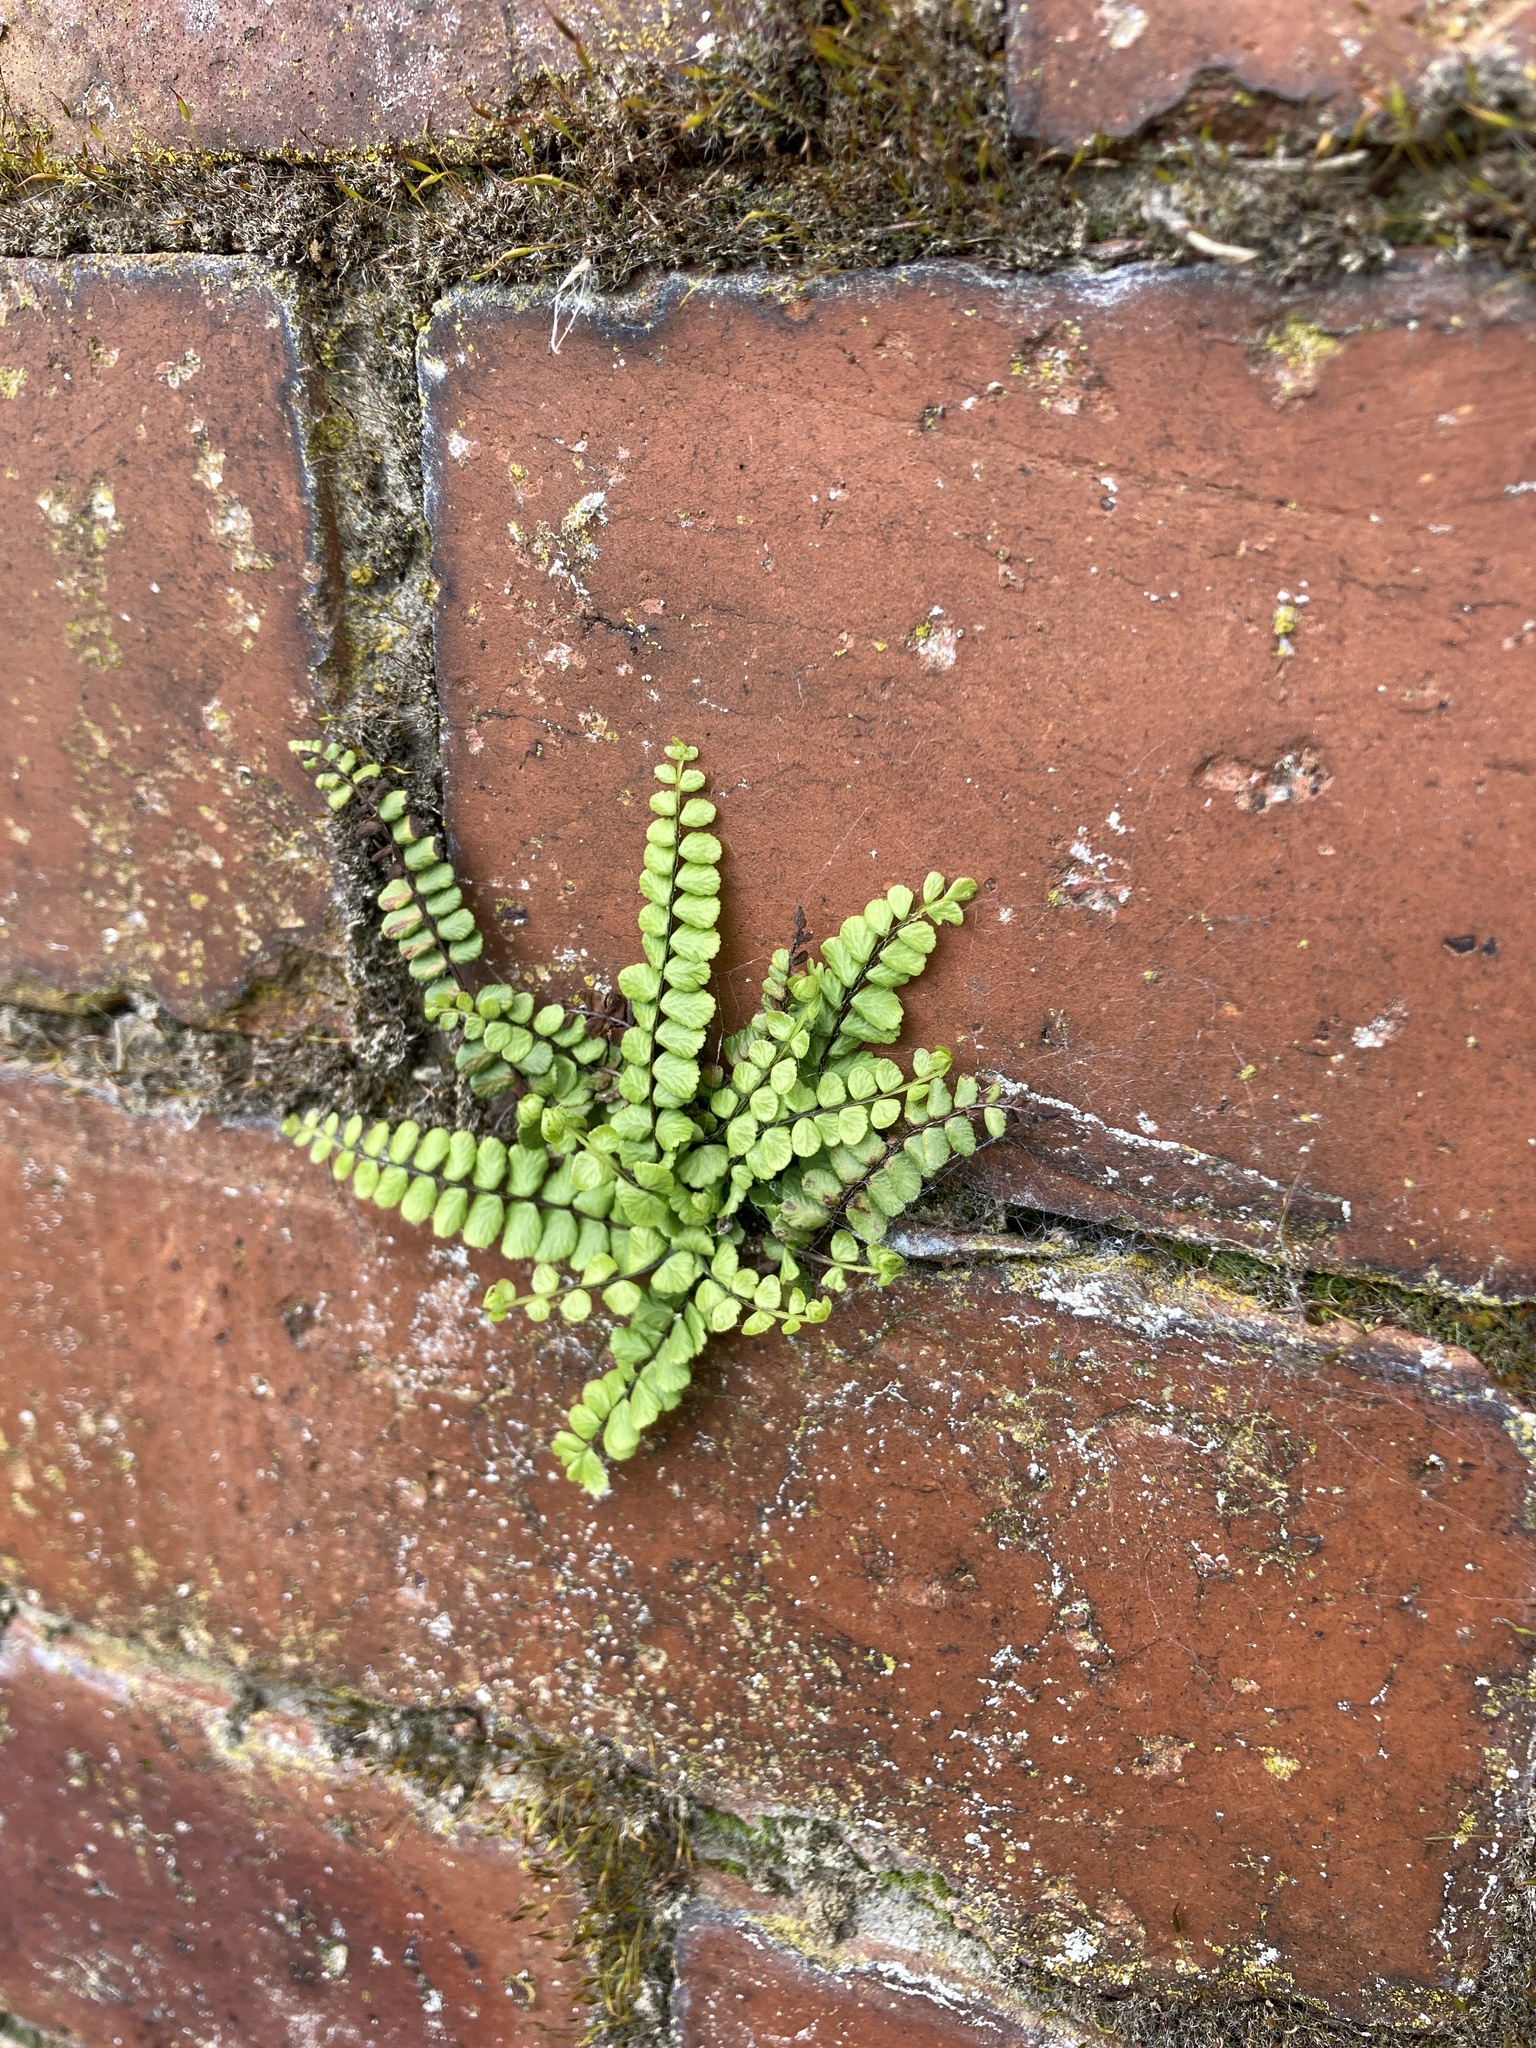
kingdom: Plantae
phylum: Tracheophyta
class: Polypodiopsida
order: Polypodiales
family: Aspleniaceae
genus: Asplenium
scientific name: Asplenium trichomanes
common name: Maidenhair spleenwort
